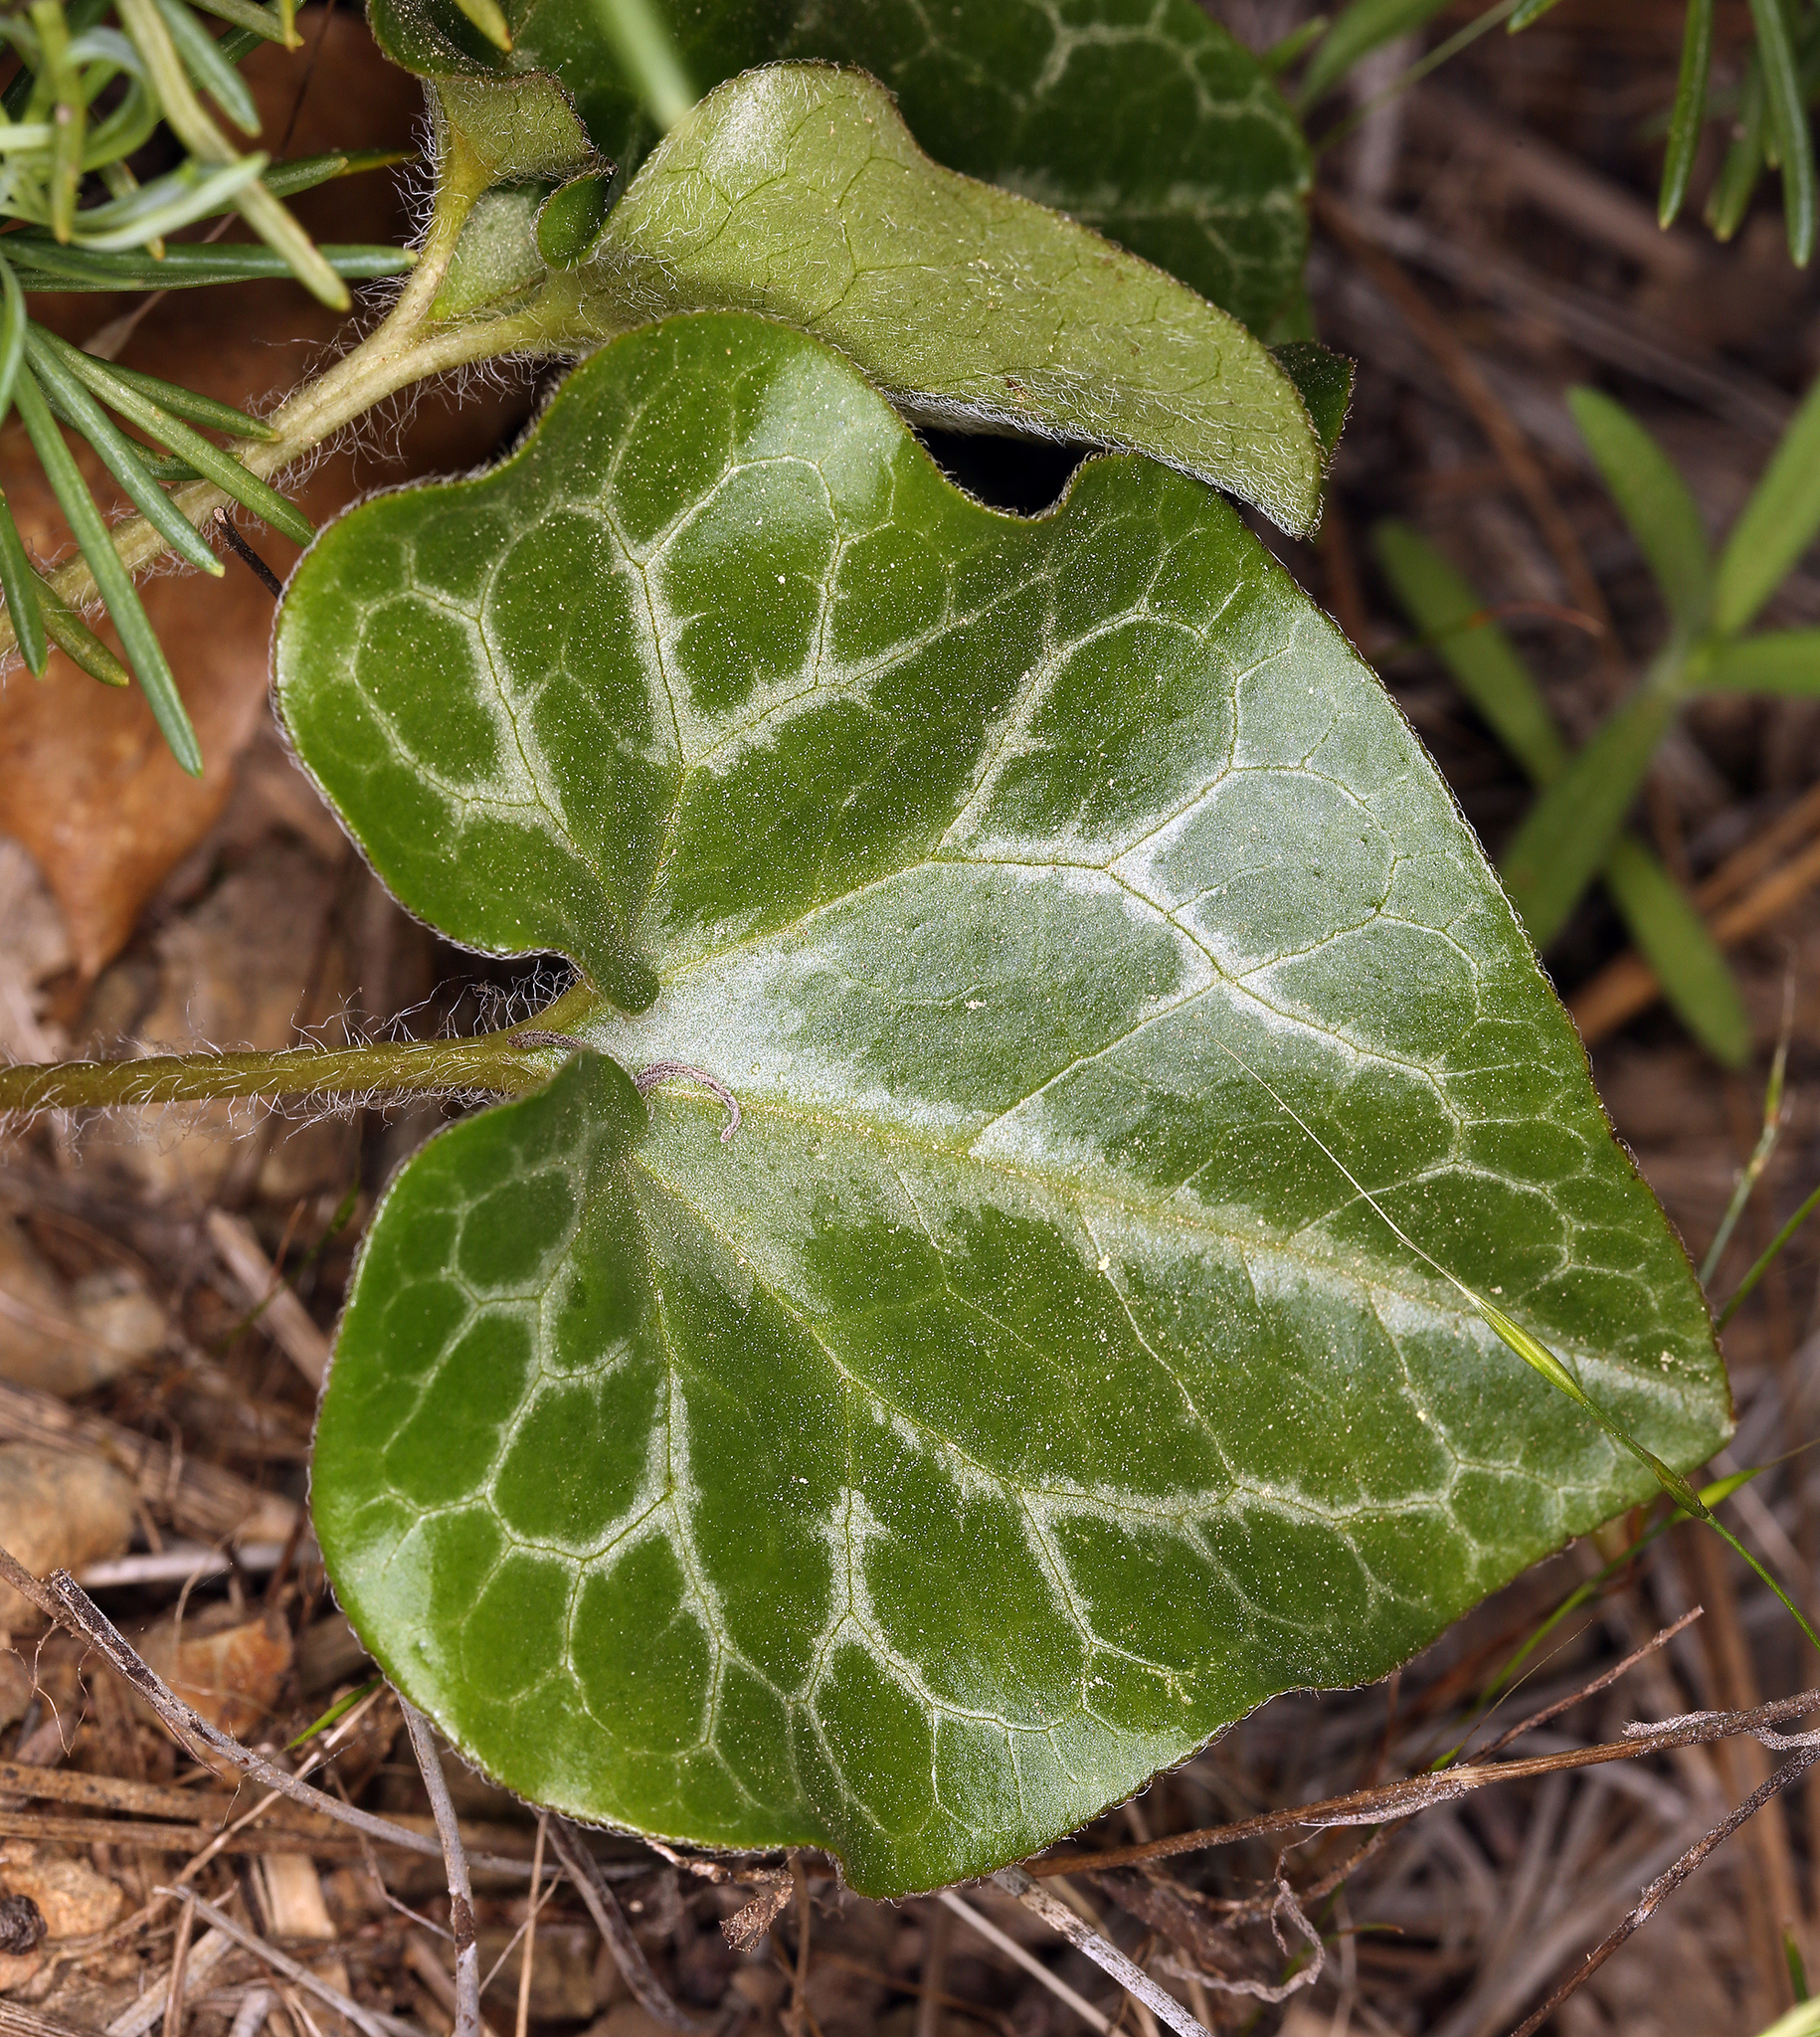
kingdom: Plantae
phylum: Tracheophyta
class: Magnoliopsida
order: Piperales
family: Aristolochiaceae
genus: Asarum
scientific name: Asarum hartwegii
